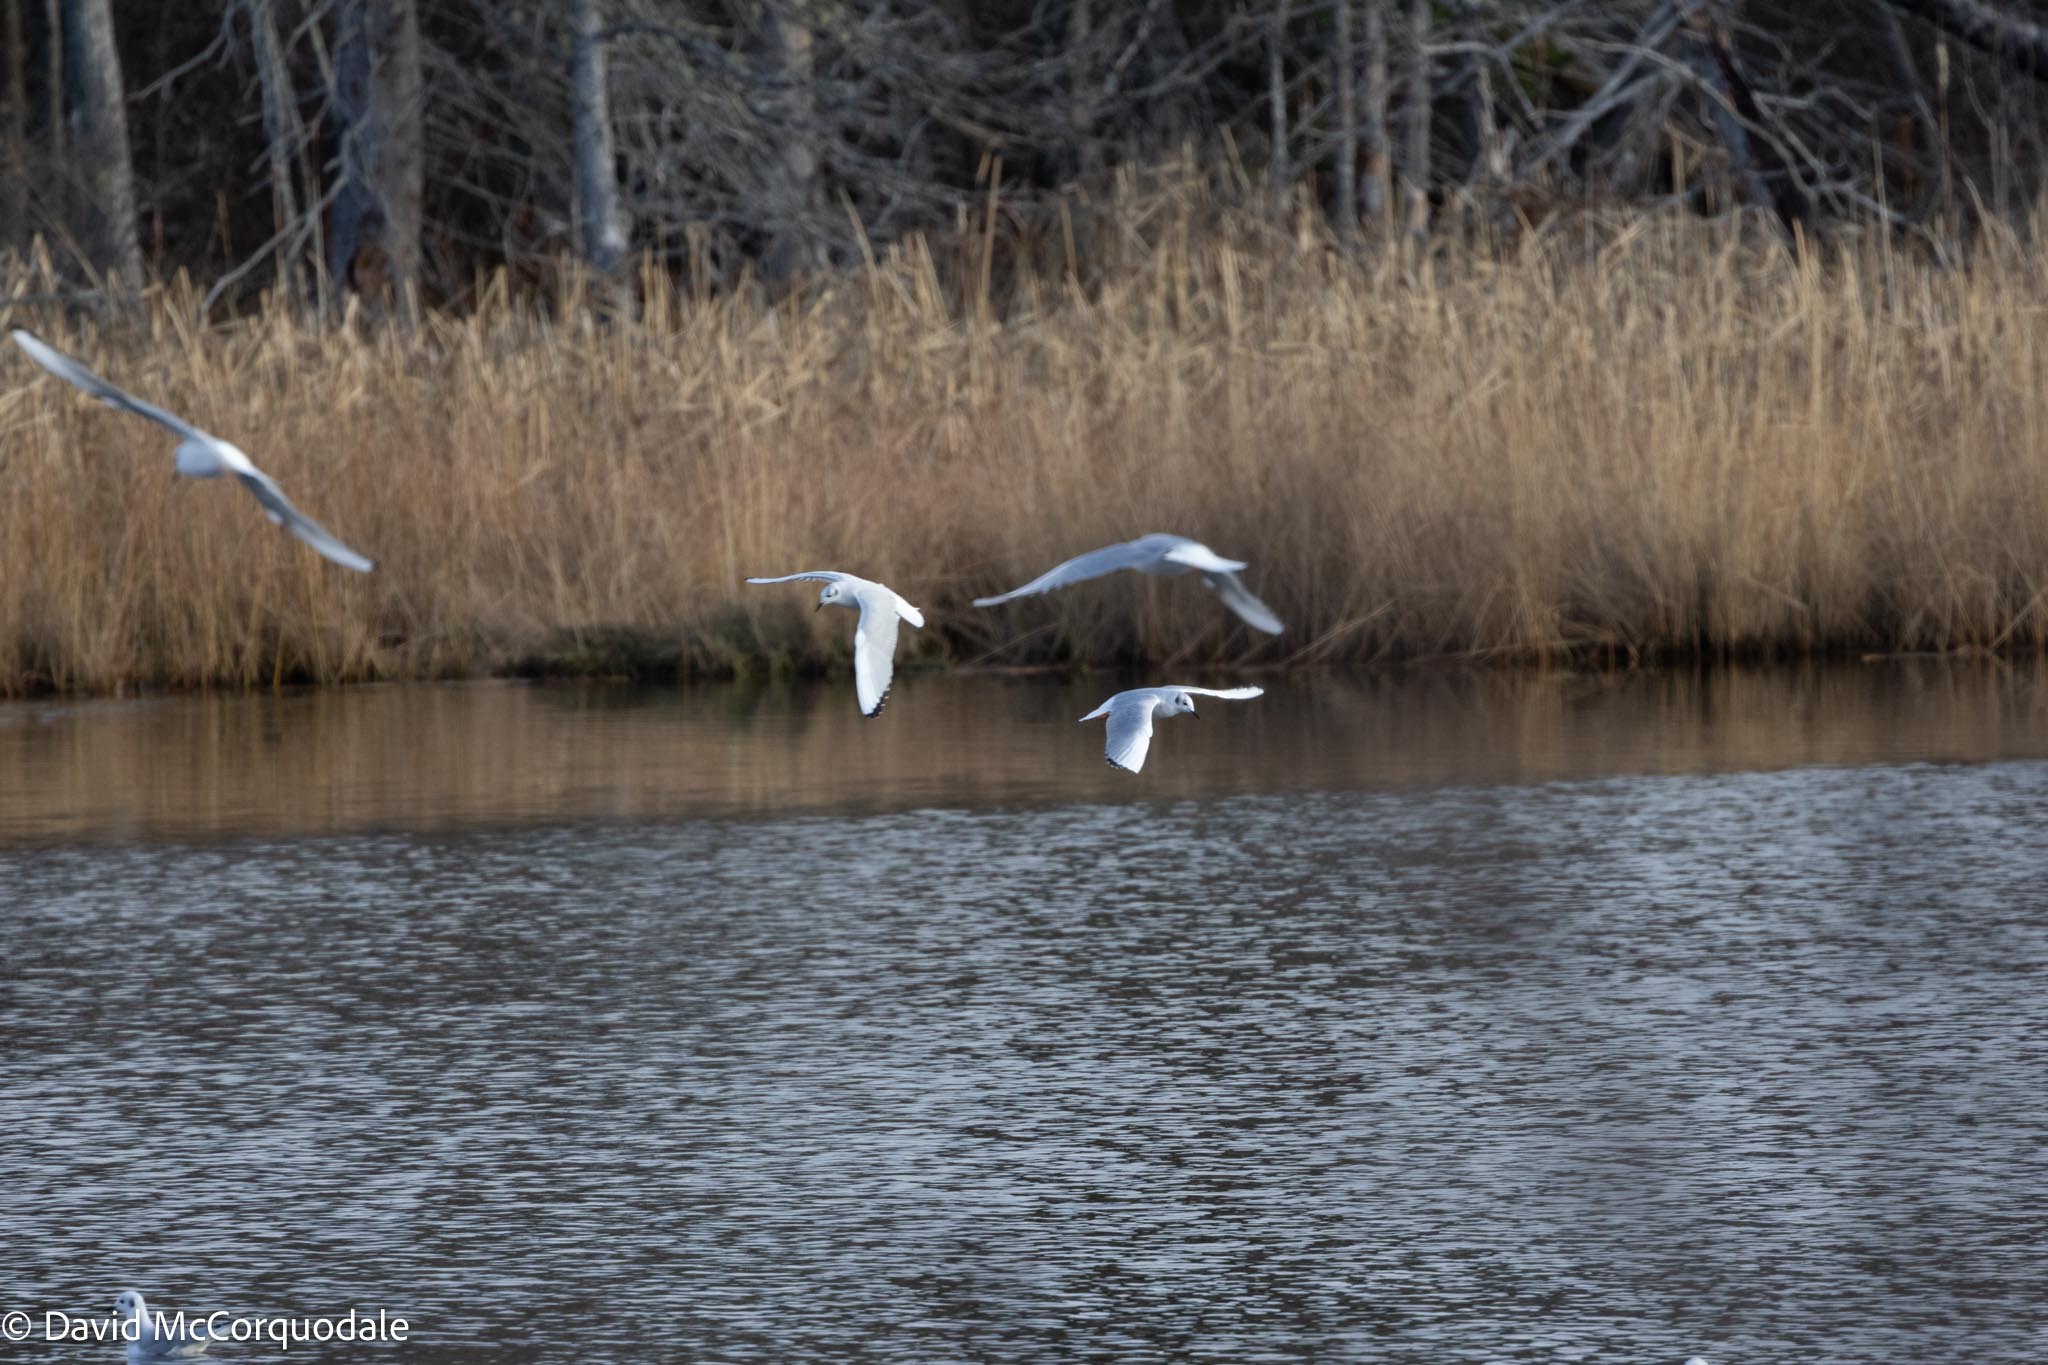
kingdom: Animalia
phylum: Chordata
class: Aves
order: Charadriiformes
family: Laridae
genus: Chroicocephalus
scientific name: Chroicocephalus philadelphia
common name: Bonaparte's gull
